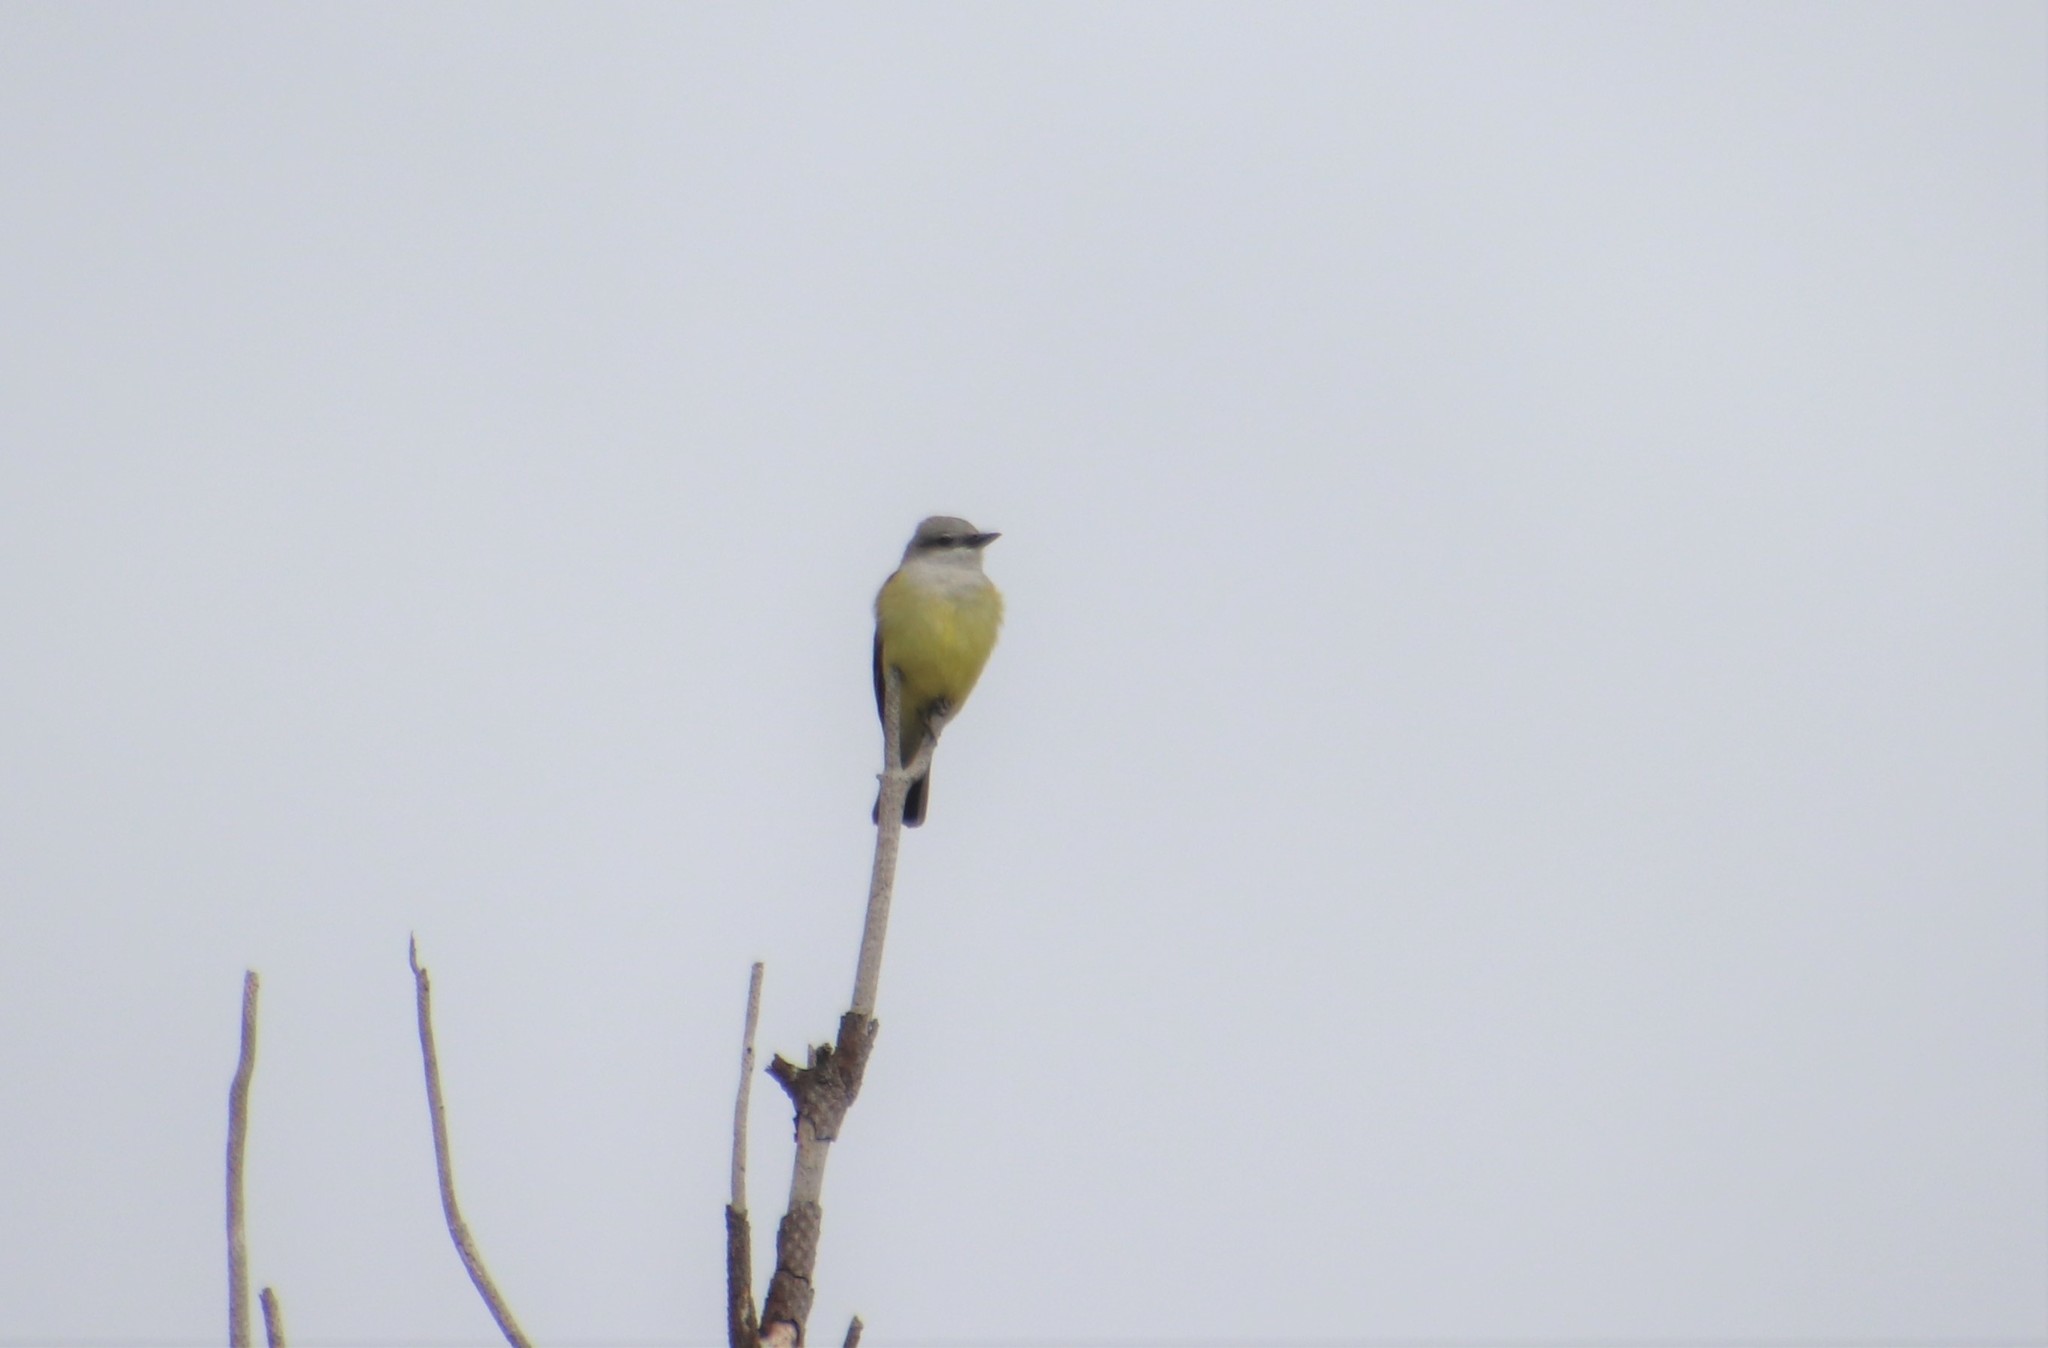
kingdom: Animalia
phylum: Chordata
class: Aves
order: Passeriformes
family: Tyrannidae
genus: Tyrannus
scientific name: Tyrannus verticalis
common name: Western kingbird
